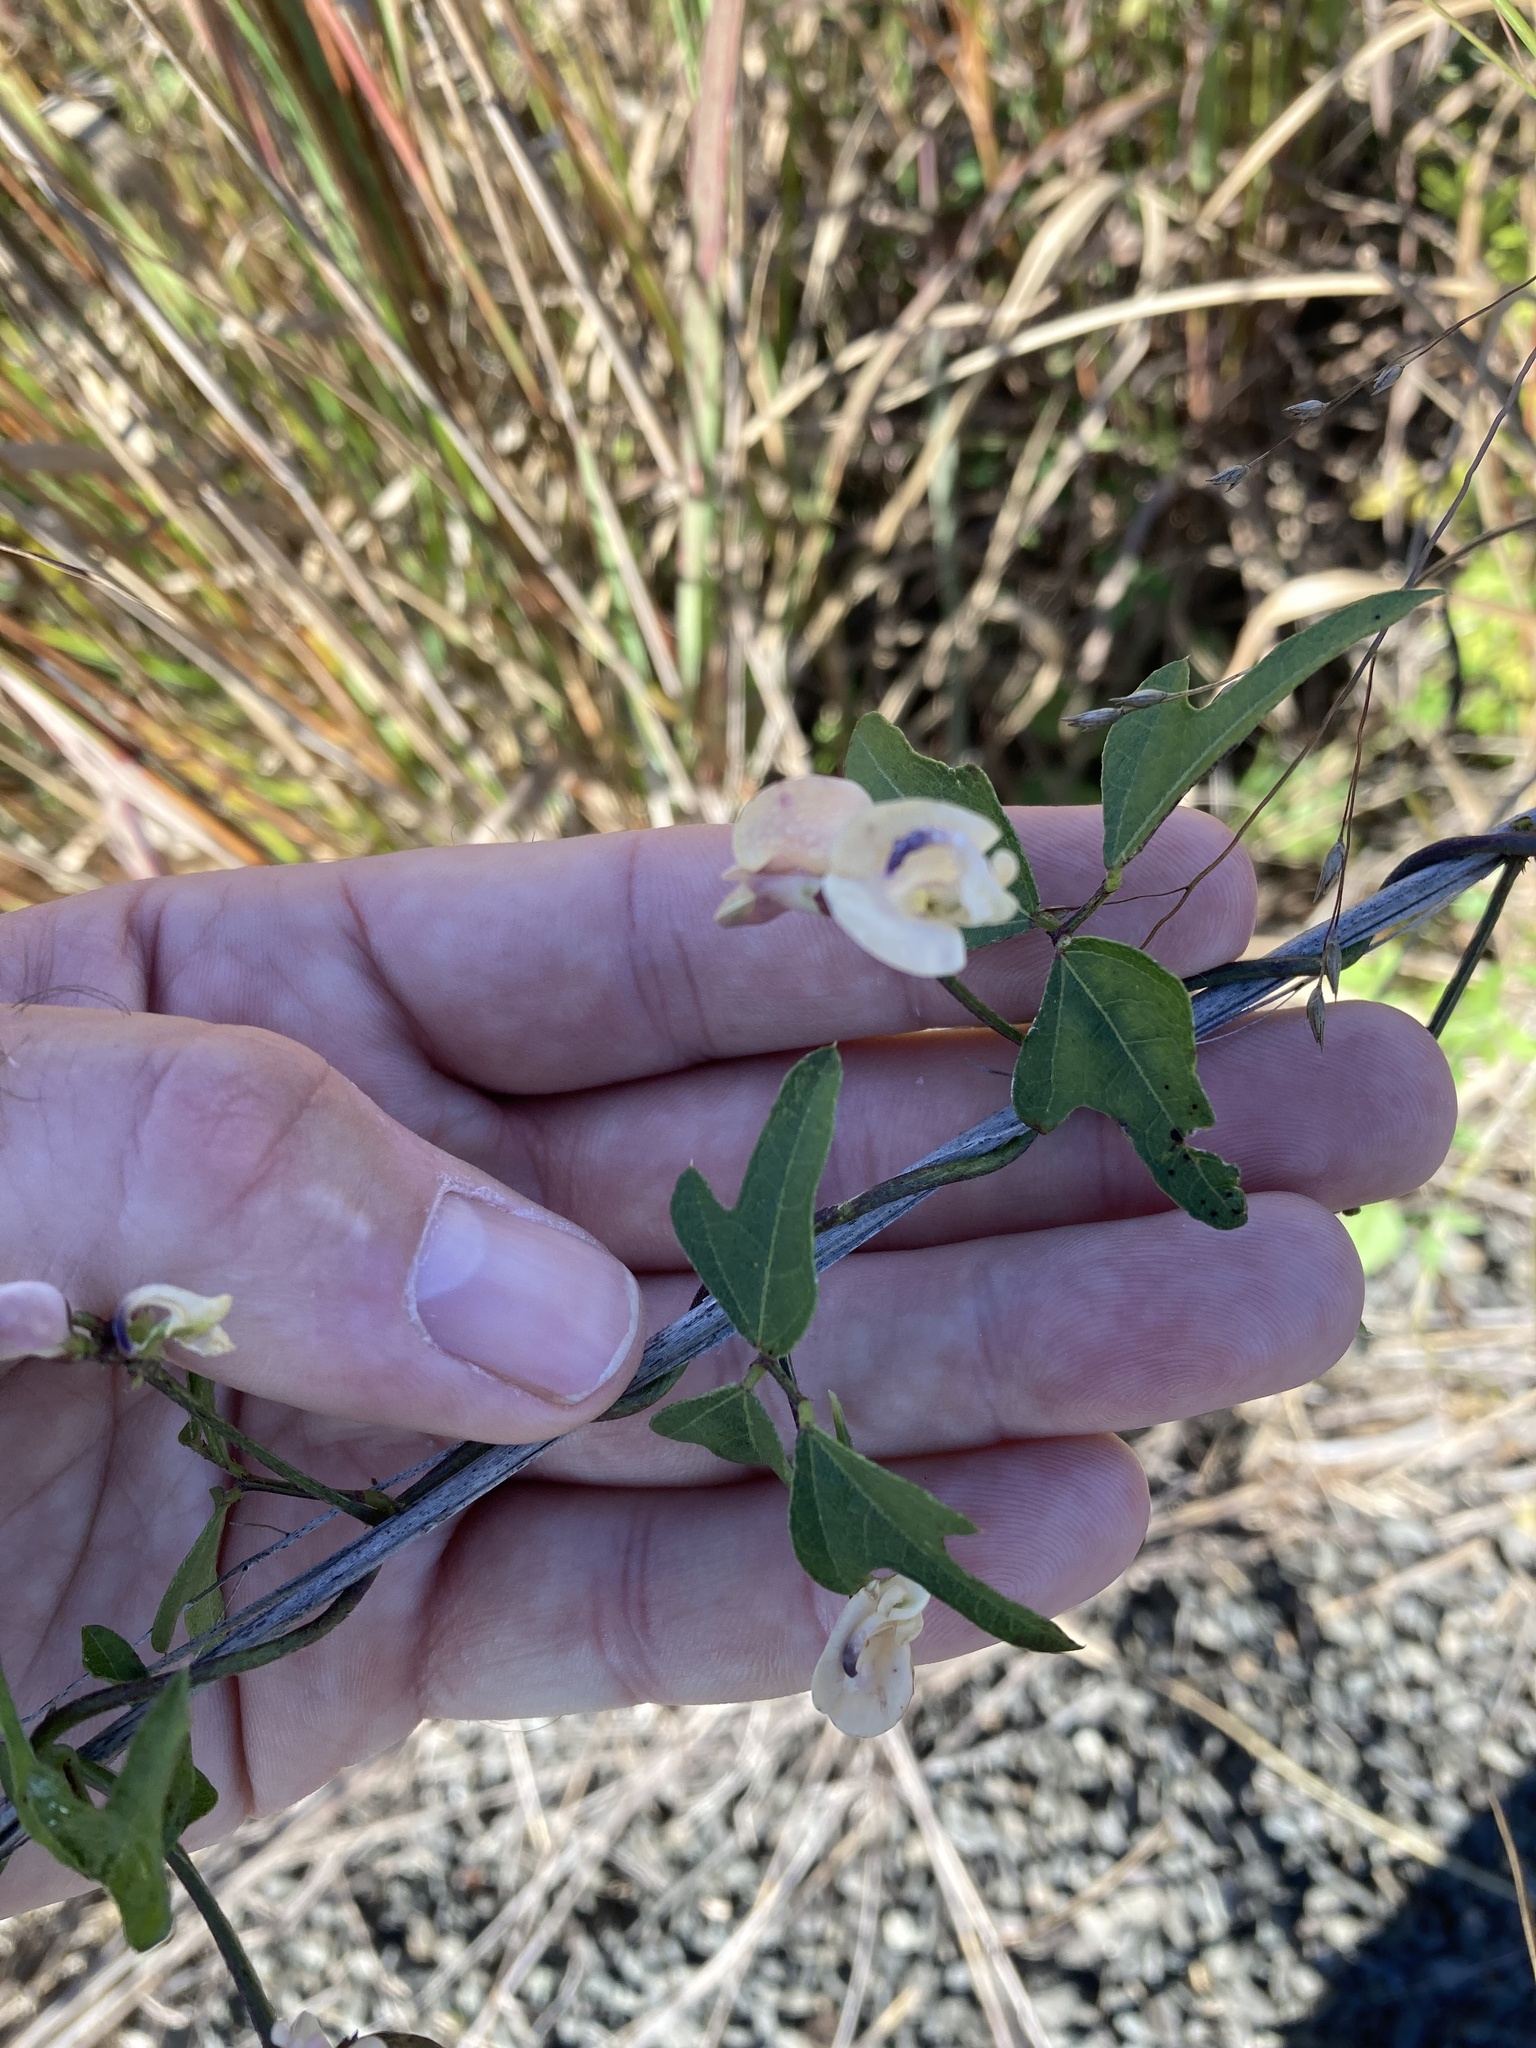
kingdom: Plantae
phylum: Tracheophyta
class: Magnoliopsida
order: Fabales
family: Fabaceae
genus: Strophostyles
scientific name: Strophostyles helvola
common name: Trailing wild bean
